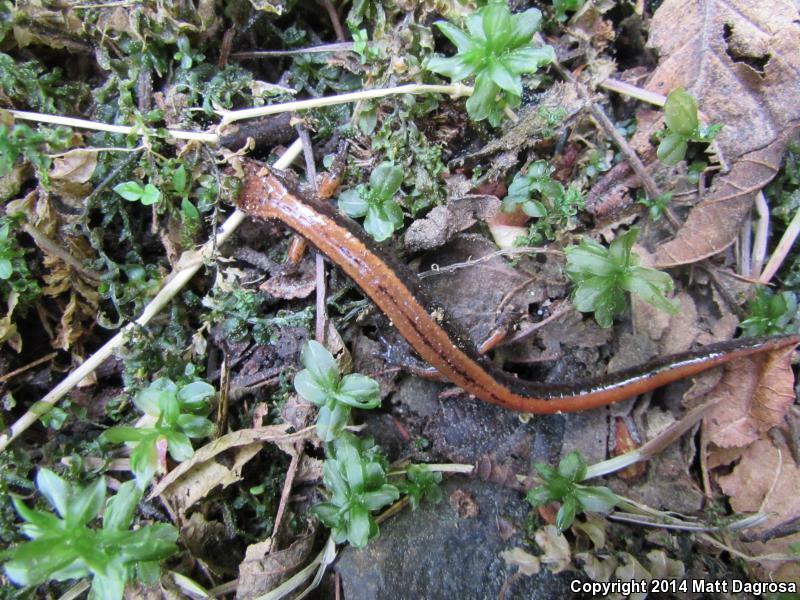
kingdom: Animalia
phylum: Chordata
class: Amphibia
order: Caudata
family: Plethodontidae
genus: Plethodon
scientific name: Plethodon vehiculum
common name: Western red-backed salamander
